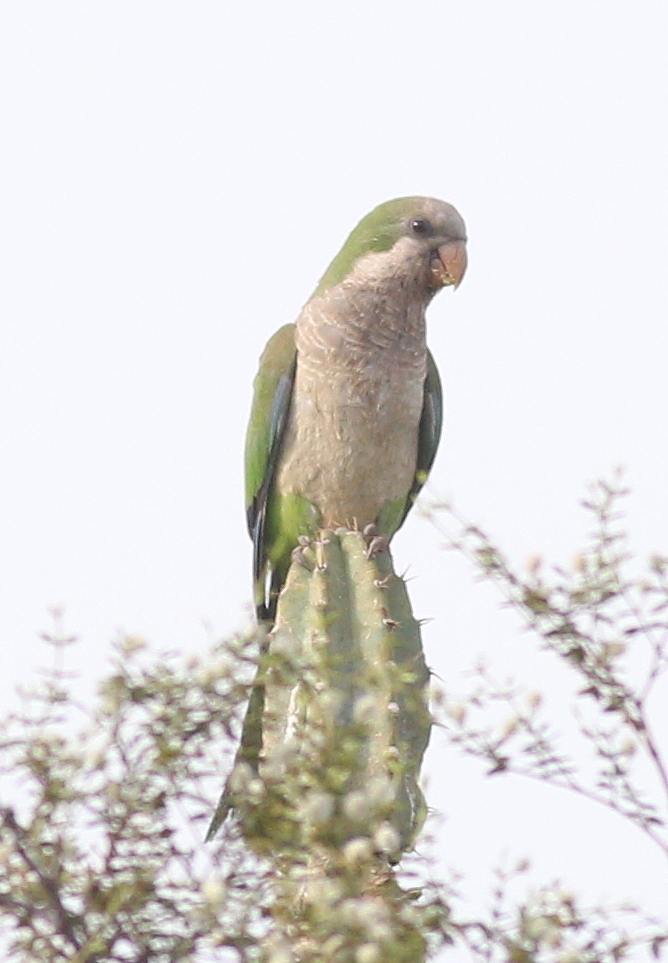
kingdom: Animalia
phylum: Chordata
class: Aves
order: Psittaciformes
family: Psittacidae
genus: Myiopsitta
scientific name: Myiopsitta monachus
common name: Monk parakeet
